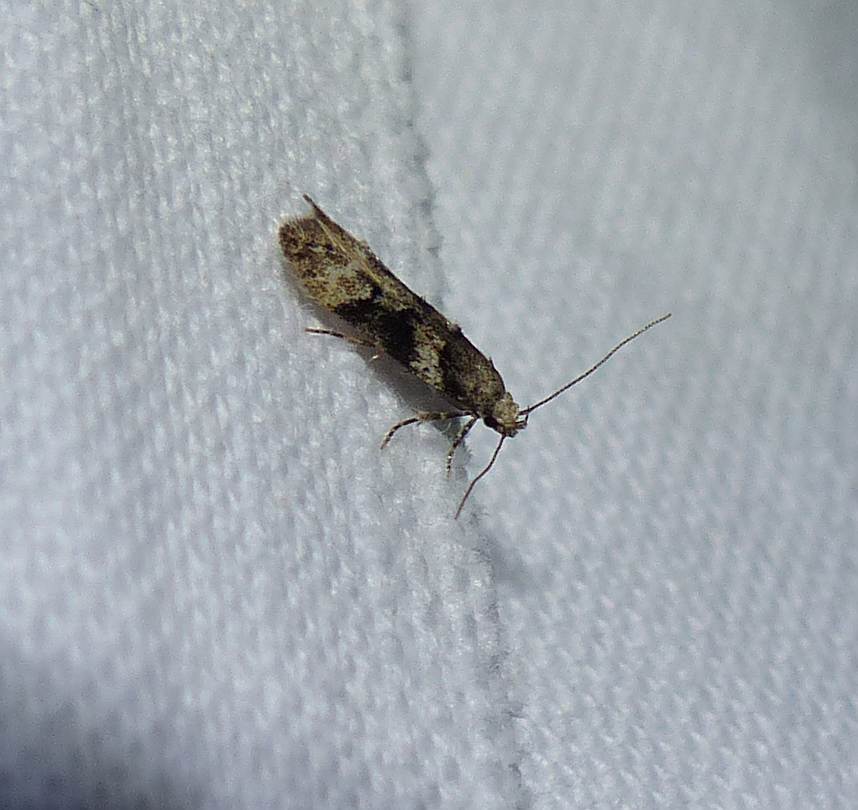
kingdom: Animalia
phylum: Arthropoda
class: Insecta
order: Lepidoptera
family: Gelechiidae
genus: Neotelphusa
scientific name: Neotelphusa sequax
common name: Barred groundling
